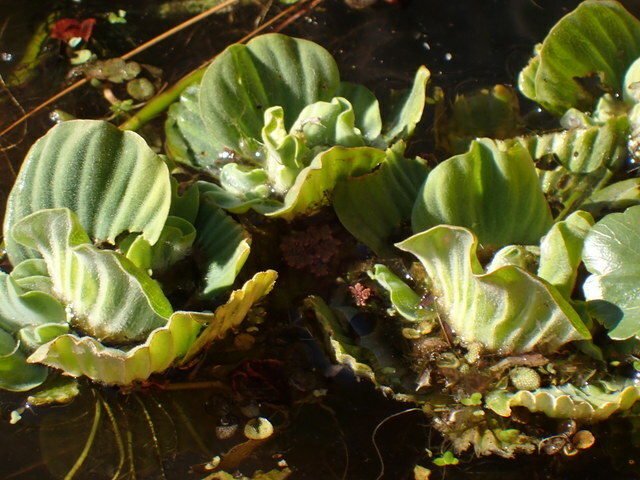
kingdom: Plantae
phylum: Tracheophyta
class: Liliopsida
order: Alismatales
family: Araceae
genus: Pistia
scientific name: Pistia stratiotes
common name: Water lettuce
